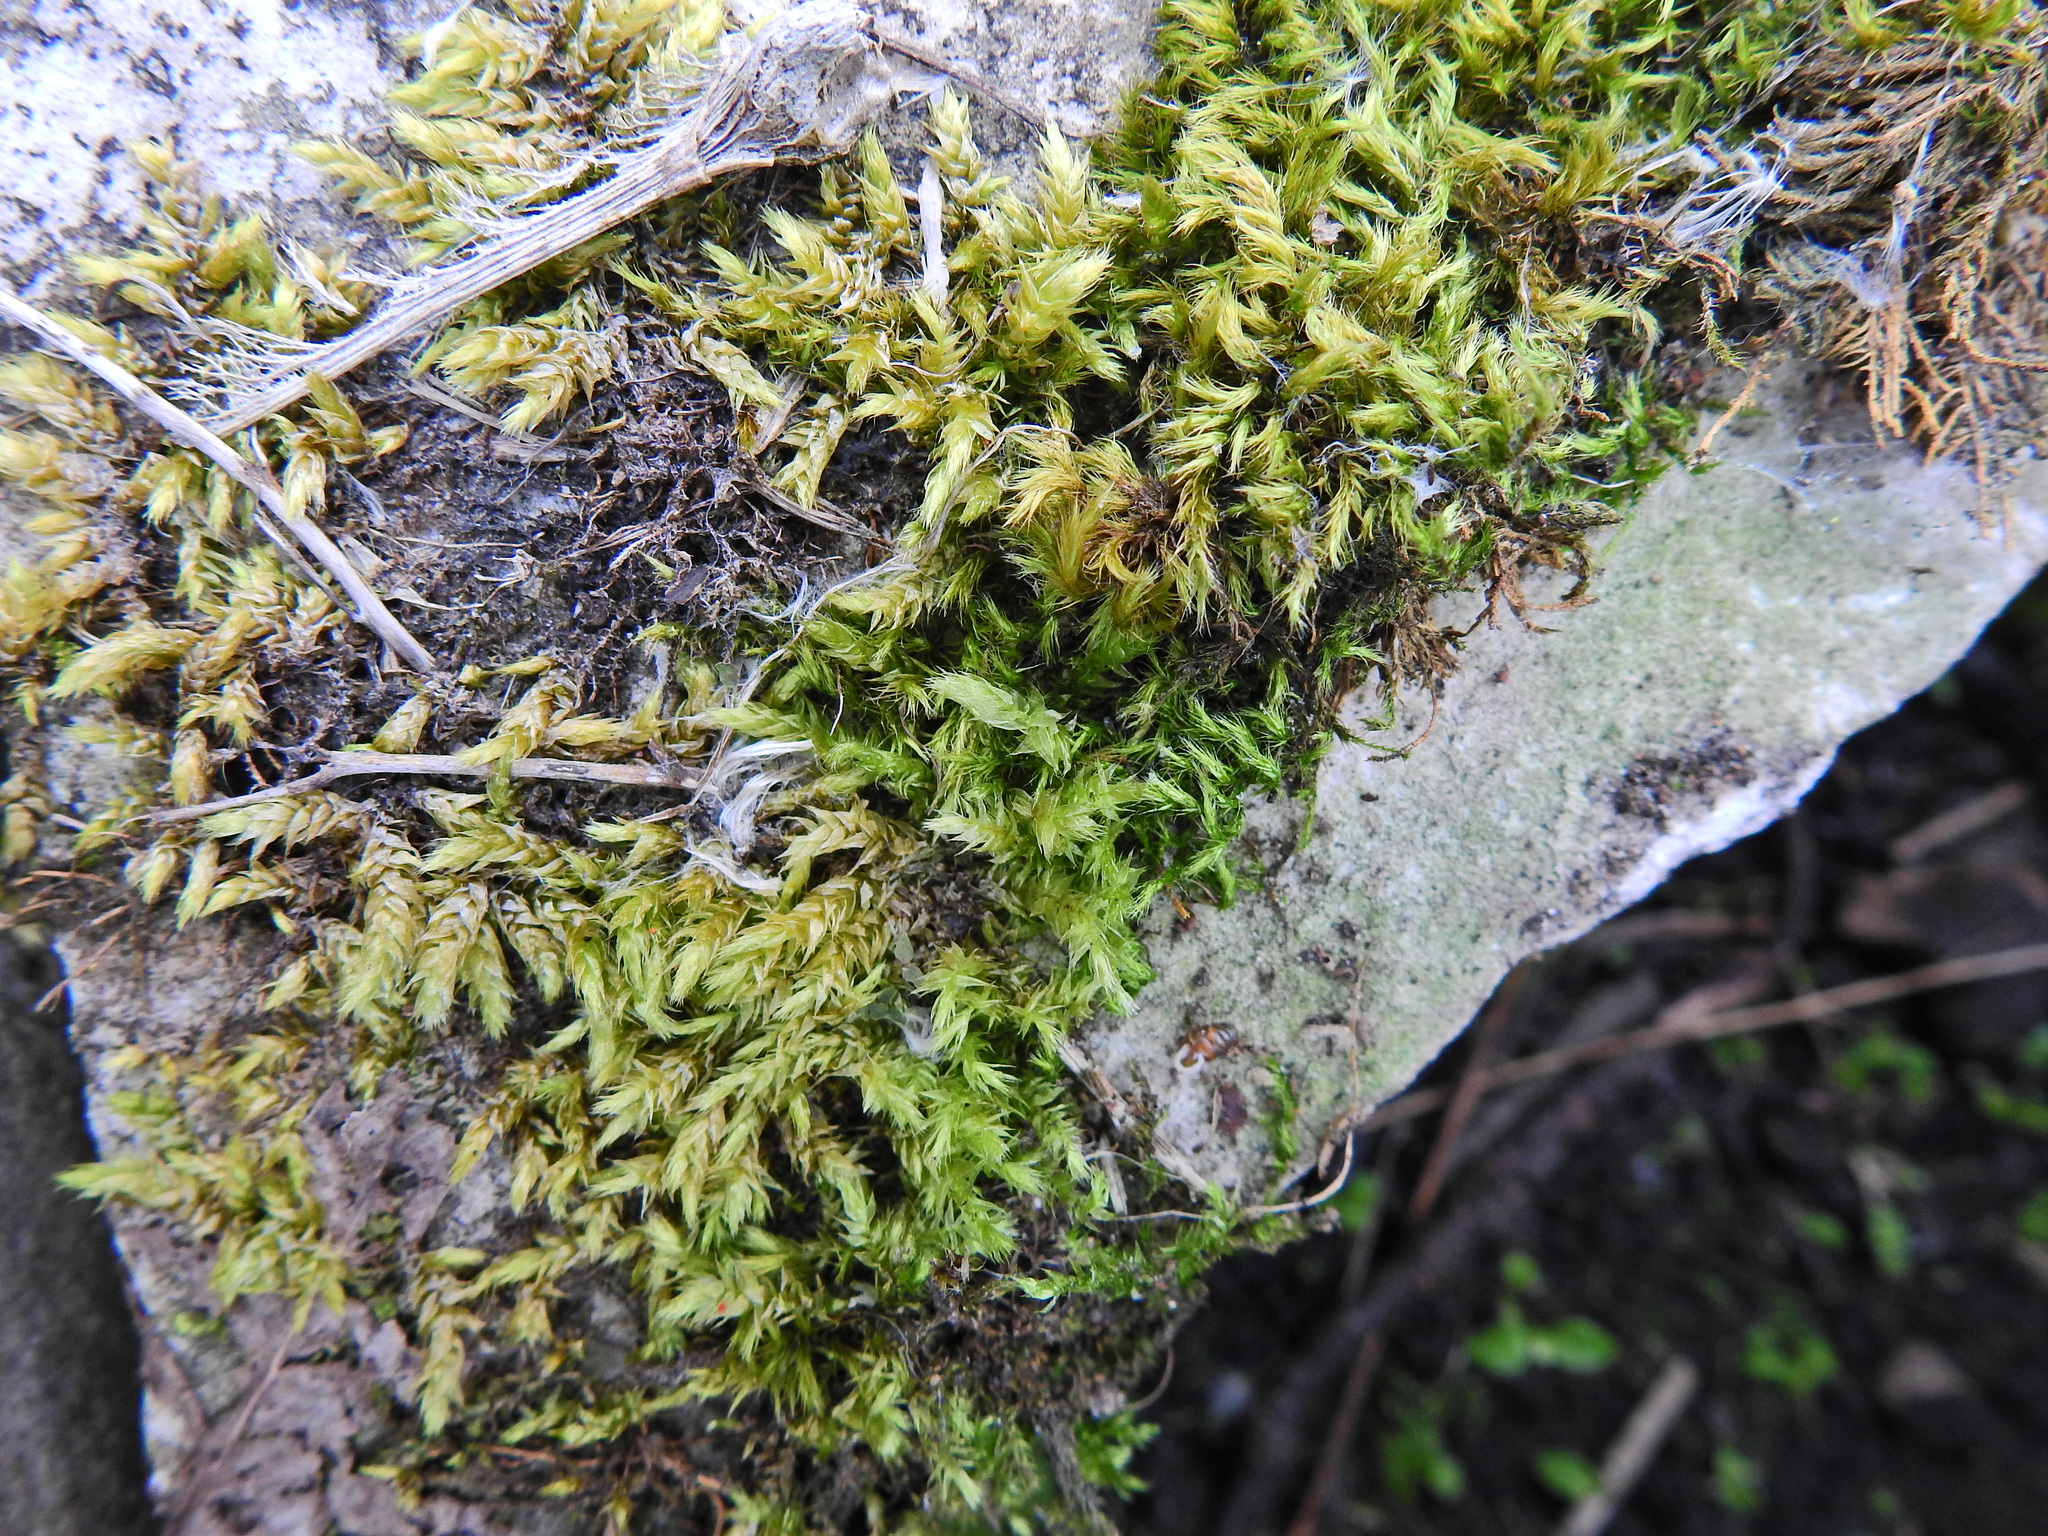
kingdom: Plantae
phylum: Bryophyta
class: Bryopsida
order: Hypnales
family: Brachytheciaceae
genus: Homalothecium
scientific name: Homalothecium sericeum
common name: Silky wall feather-moss
